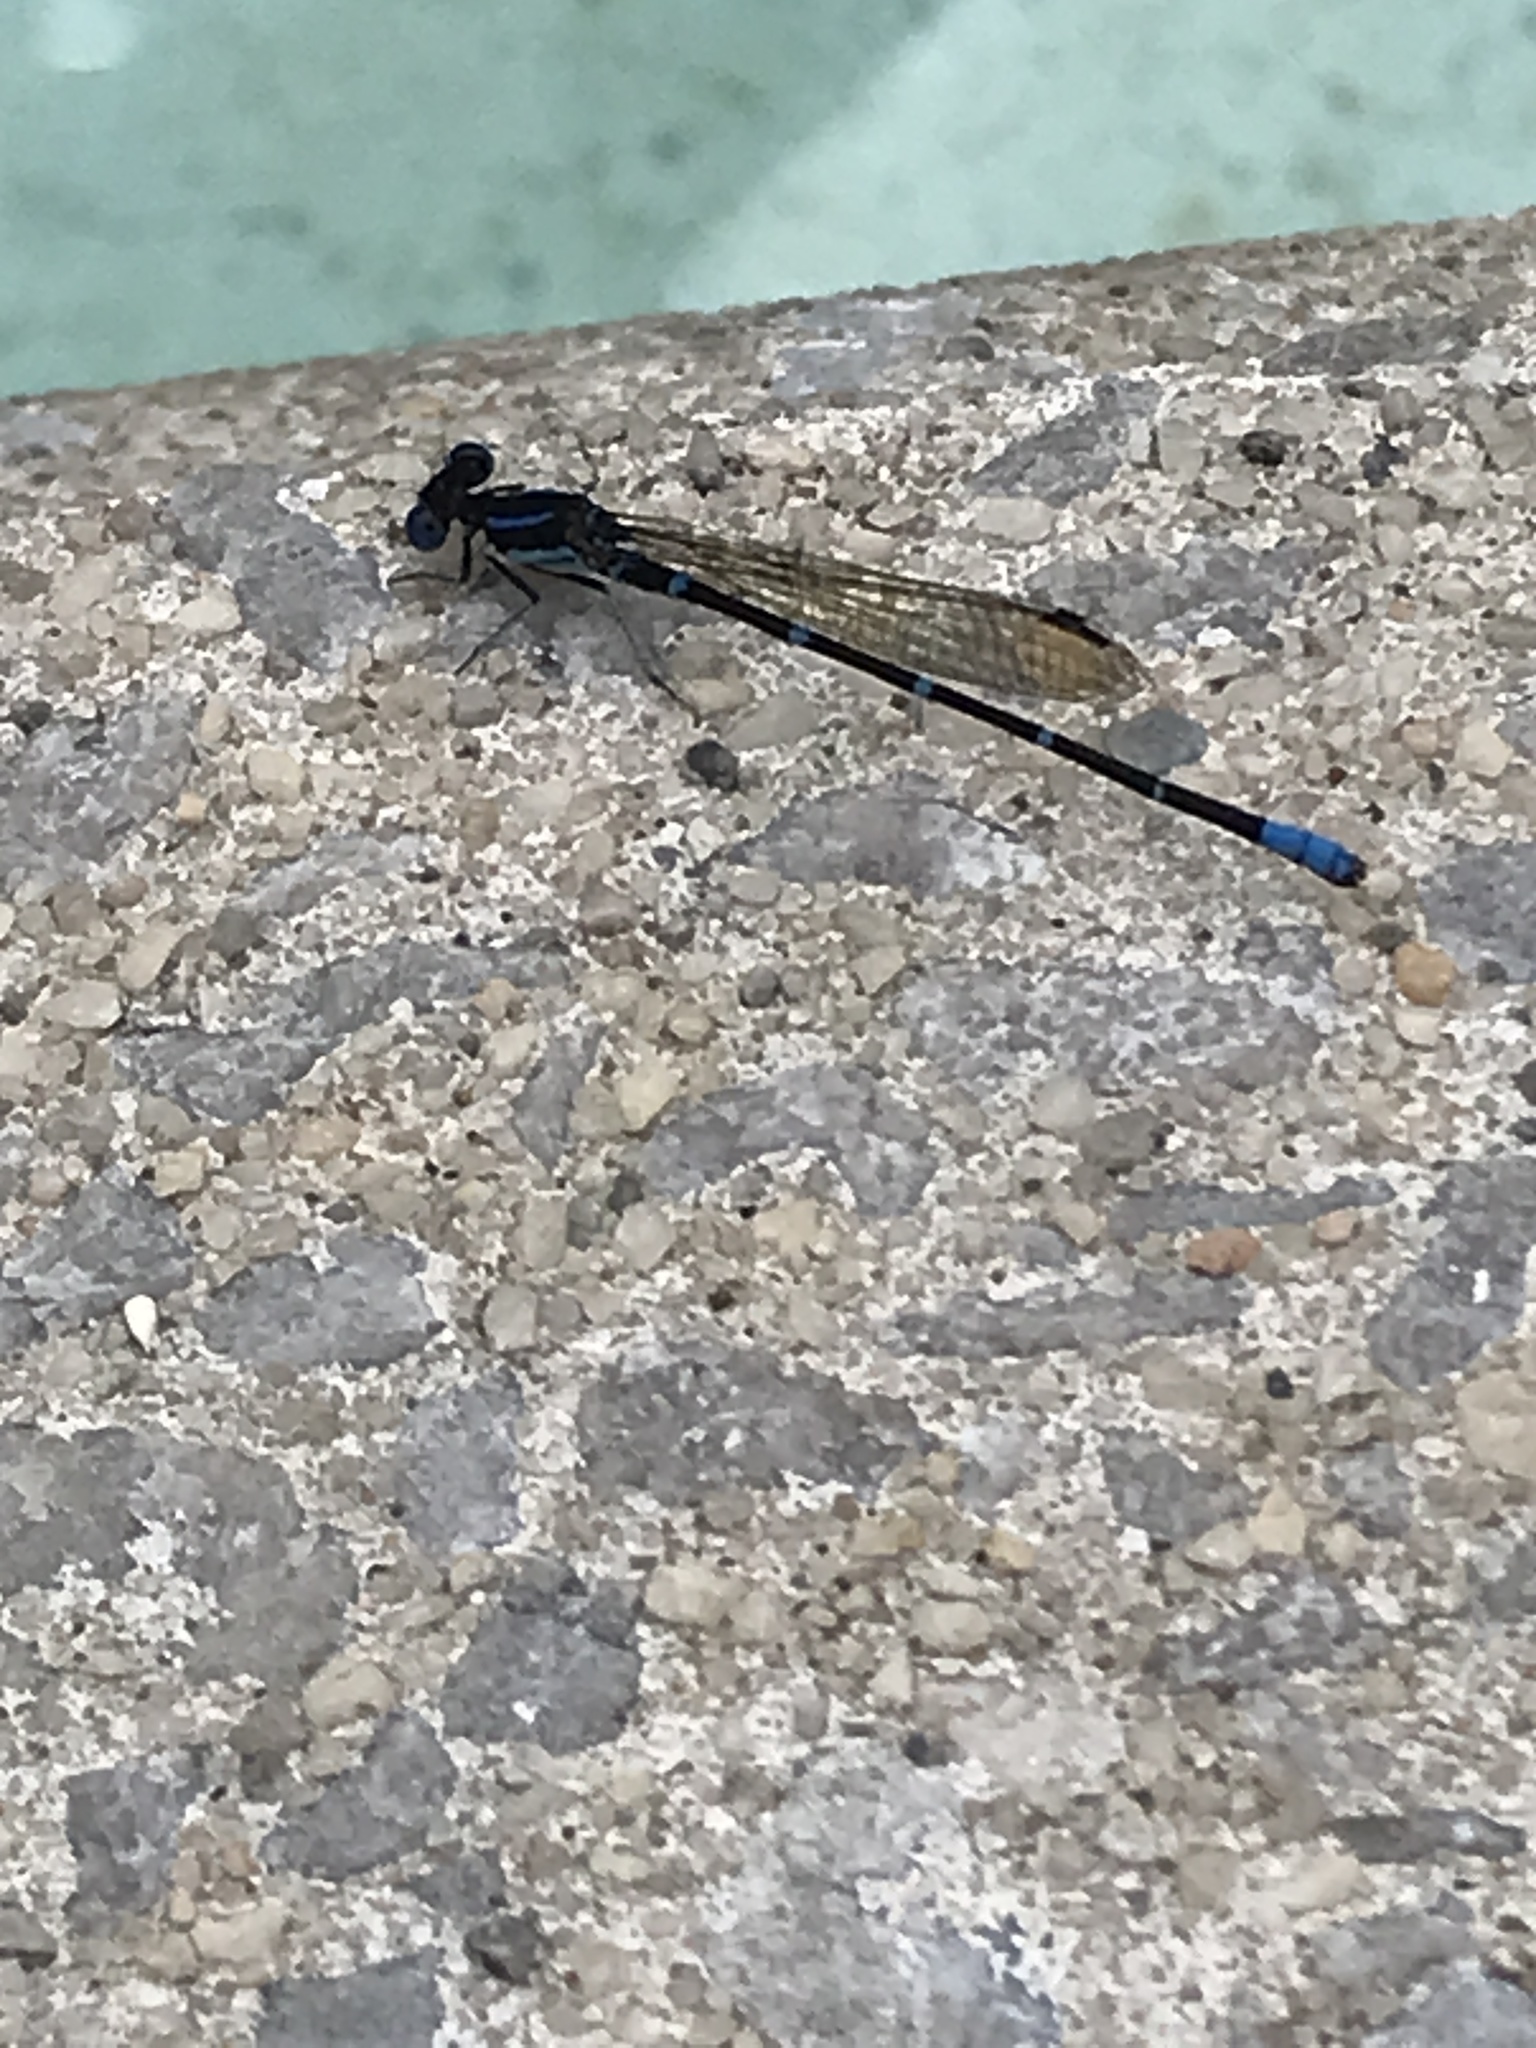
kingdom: Animalia
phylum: Arthropoda
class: Insecta
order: Odonata
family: Coenagrionidae
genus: Argia
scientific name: Argia sedula
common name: Blue-ringed dancer
